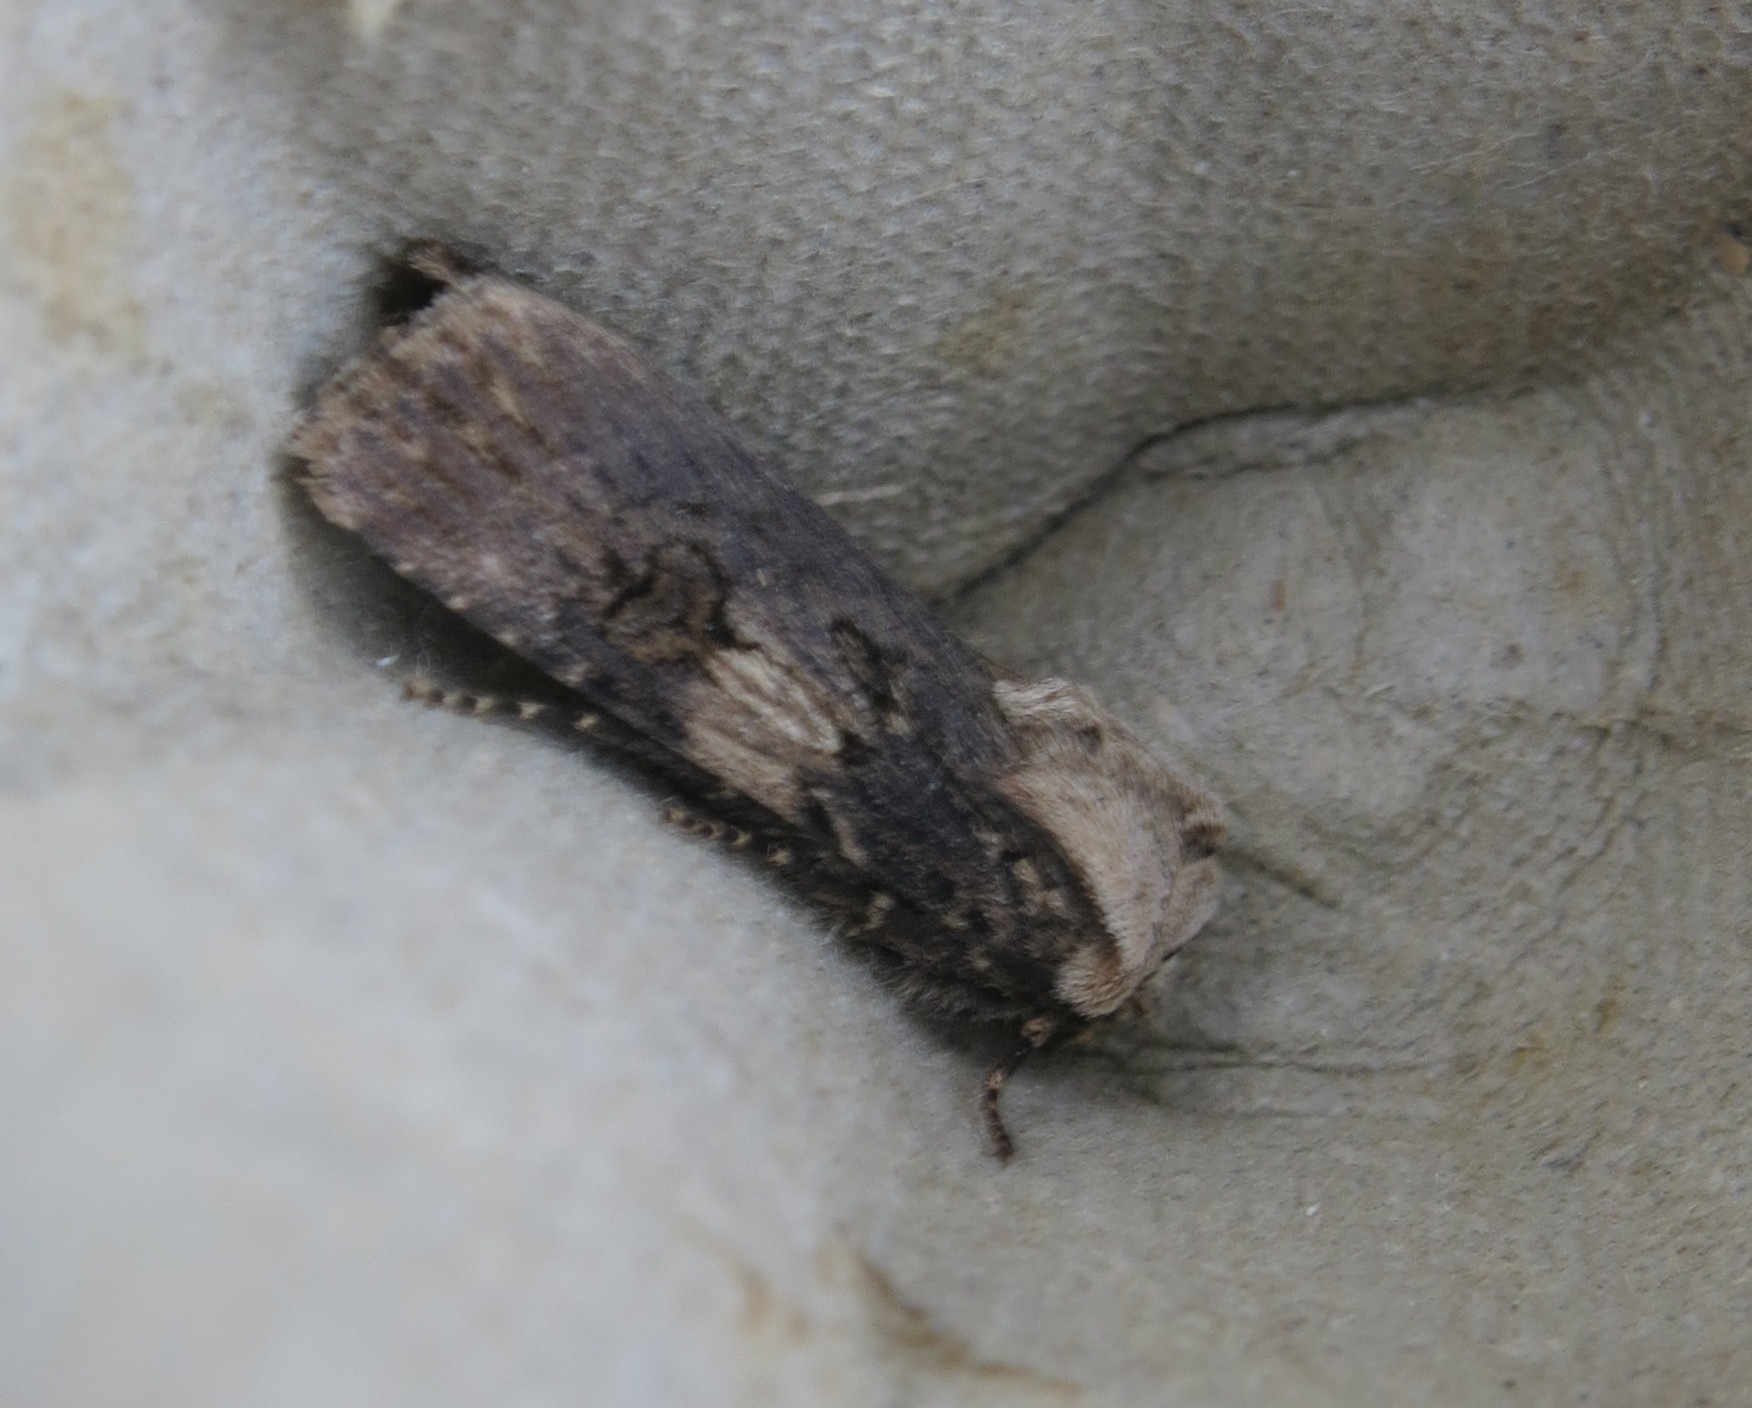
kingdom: Animalia
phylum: Arthropoda
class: Insecta
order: Lepidoptera
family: Noctuidae
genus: Agrotis
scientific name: Agrotis puta
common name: Shuttle-shaped dart
